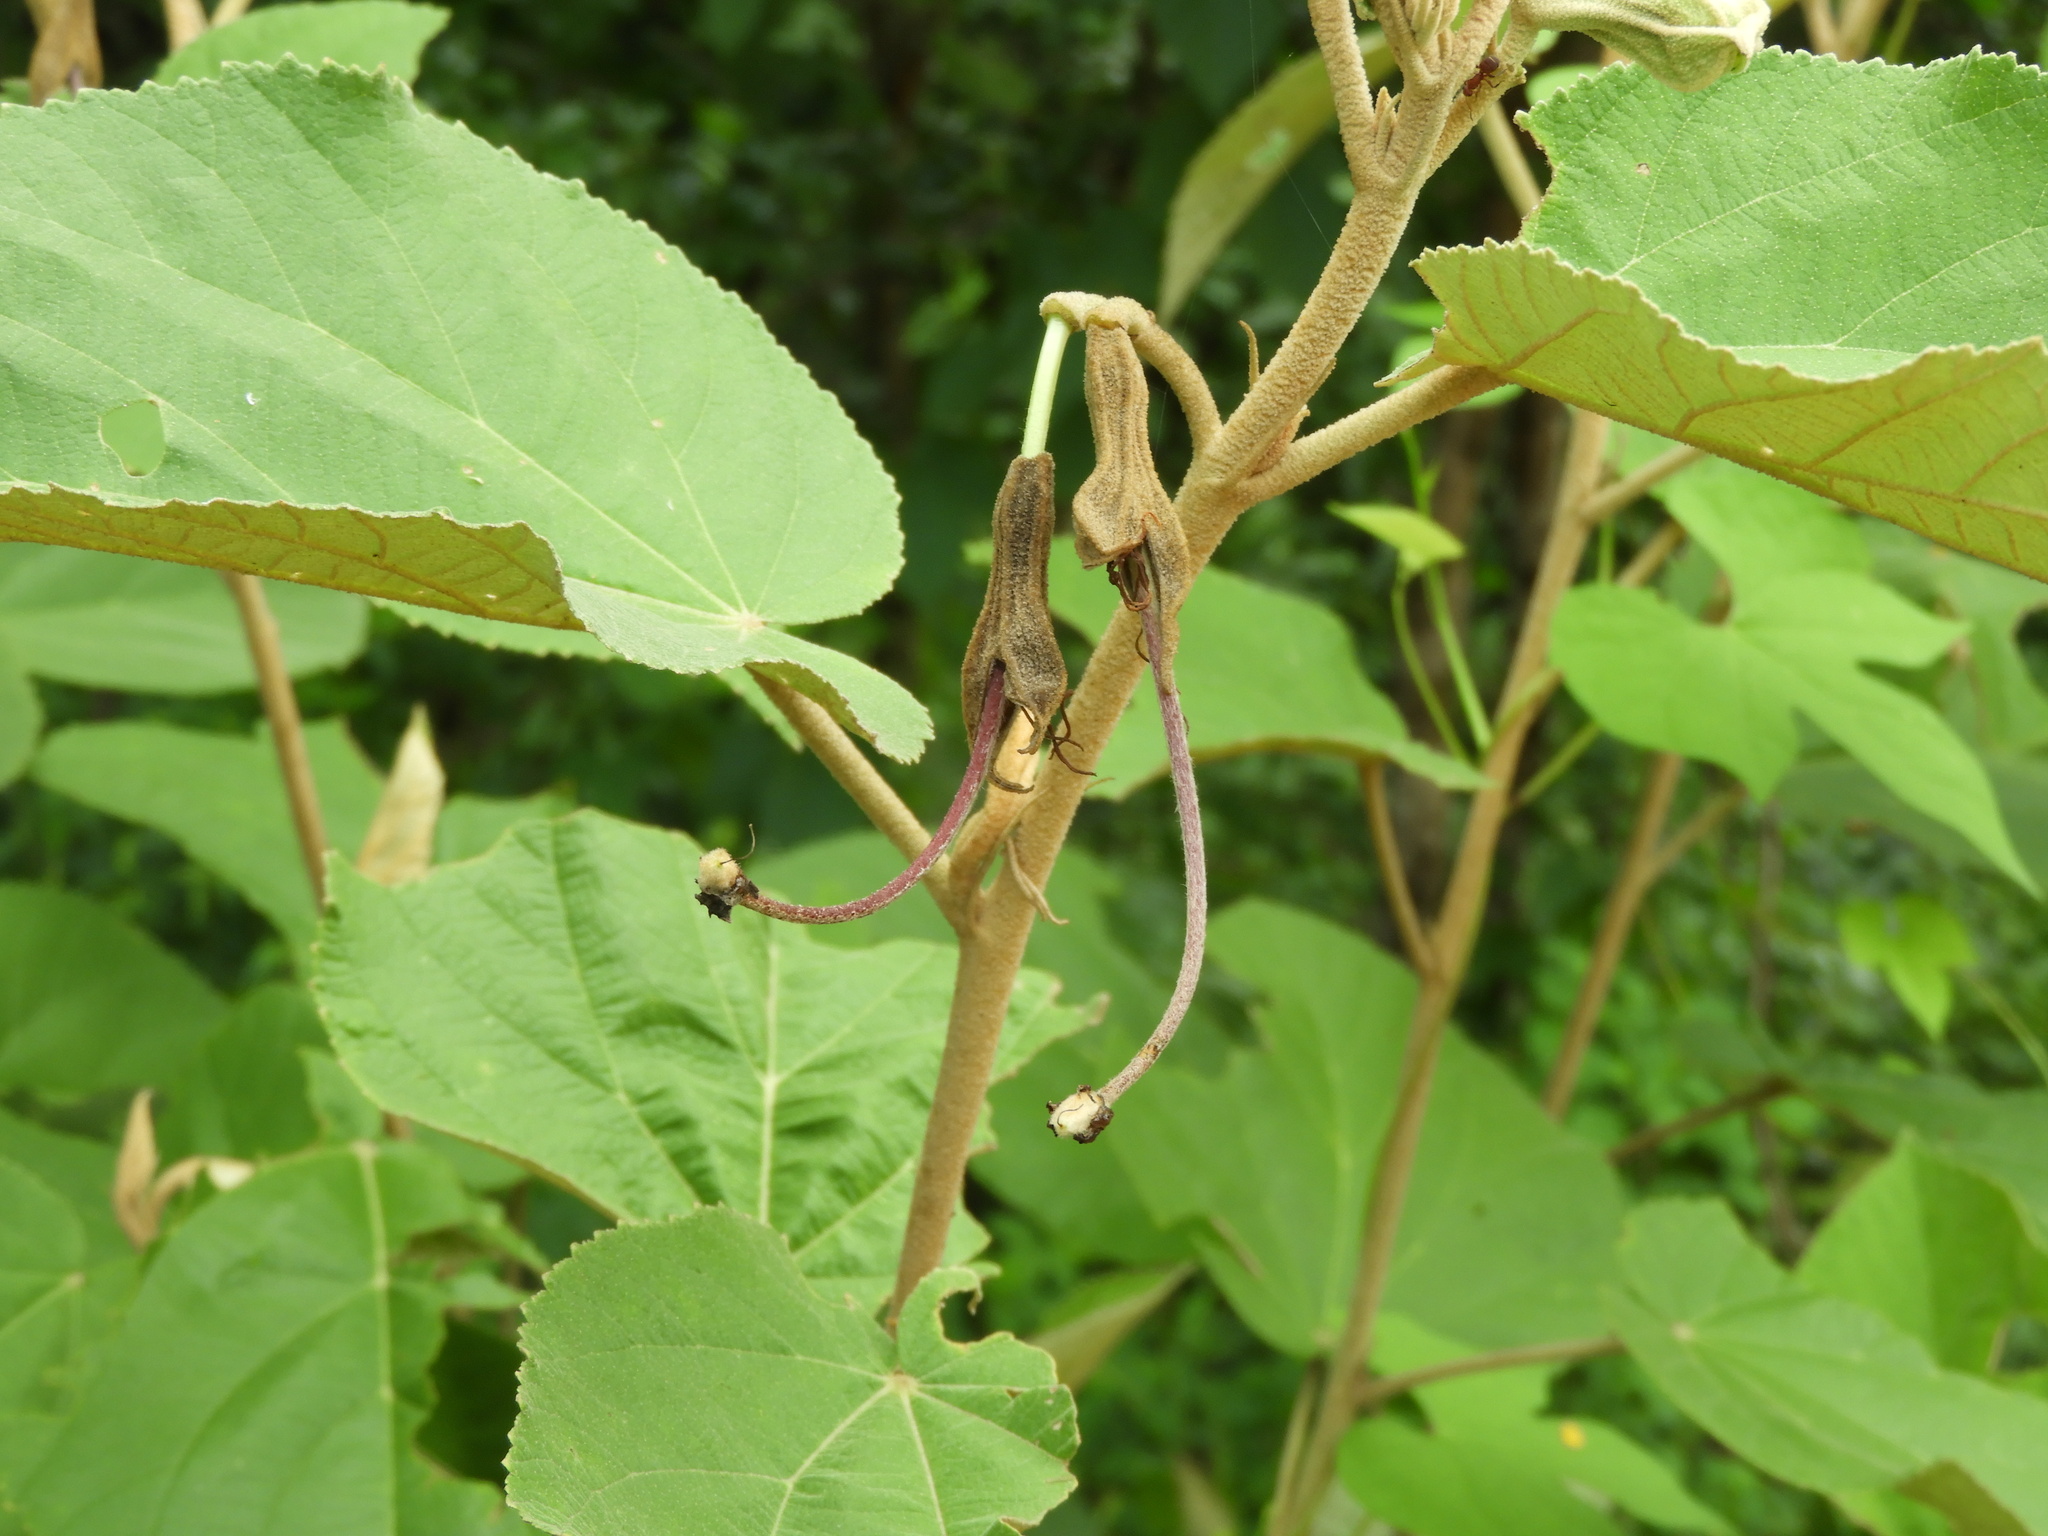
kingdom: Plantae
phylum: Tracheophyta
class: Magnoliopsida
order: Malvales
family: Malvaceae
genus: Helicteres
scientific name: Helicteres baruensis
